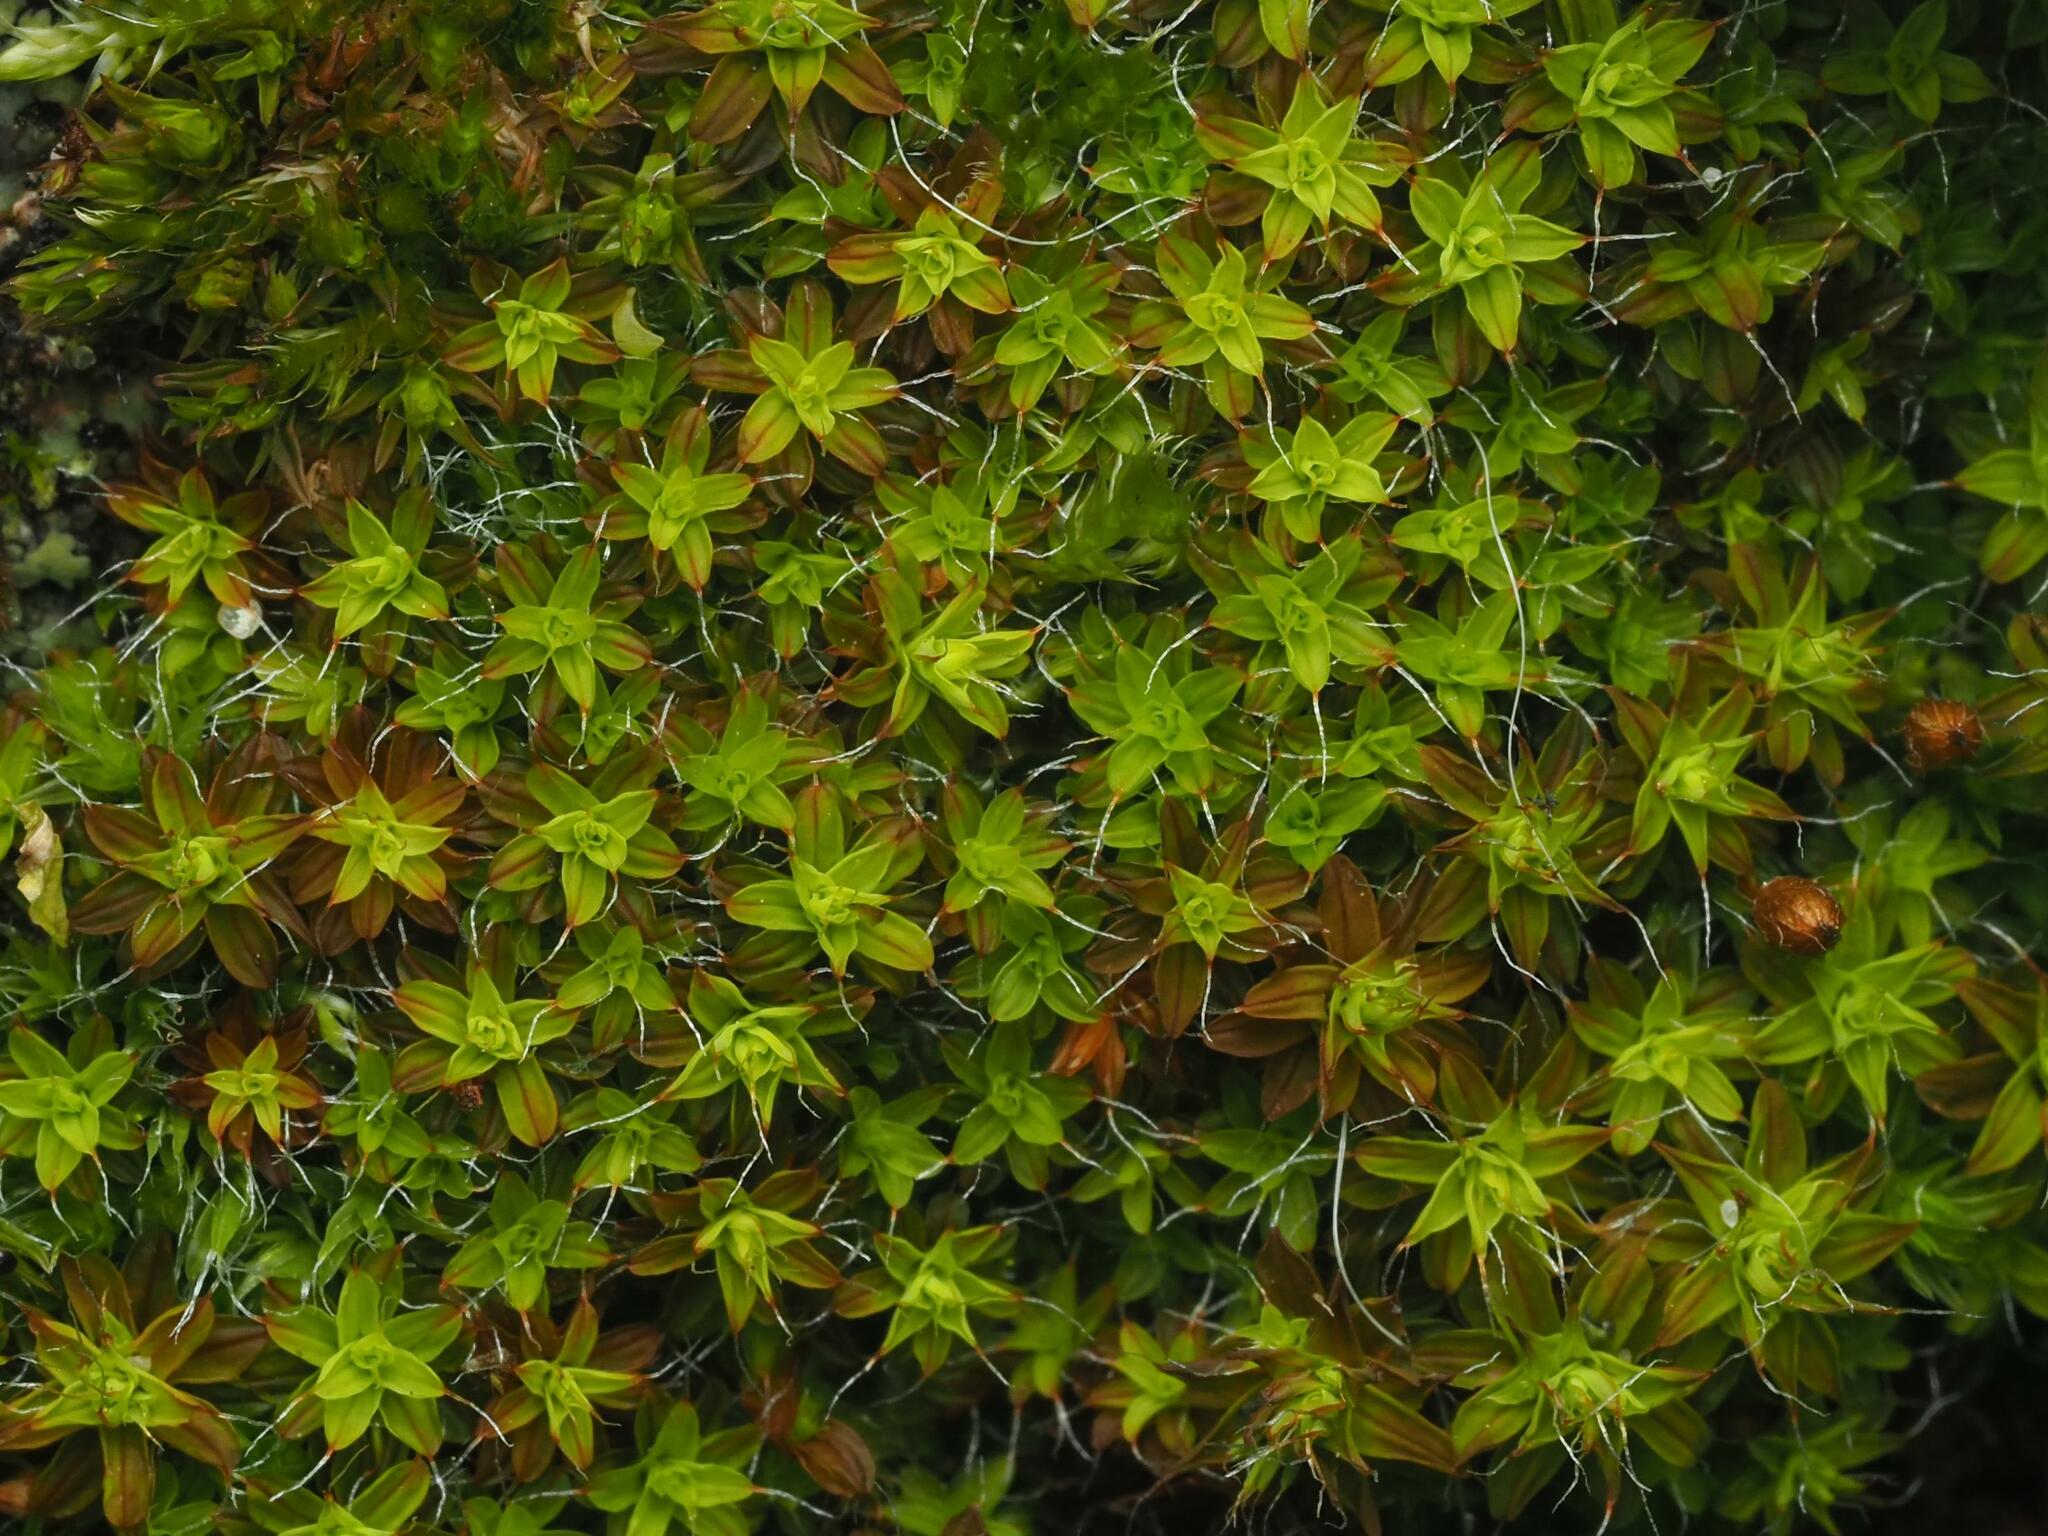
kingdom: Plantae
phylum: Bryophyta
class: Bryopsida
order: Pottiales
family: Pottiaceae
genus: Syntrichia
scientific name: Syntrichia ruralis
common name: Sidewalk screw moss
